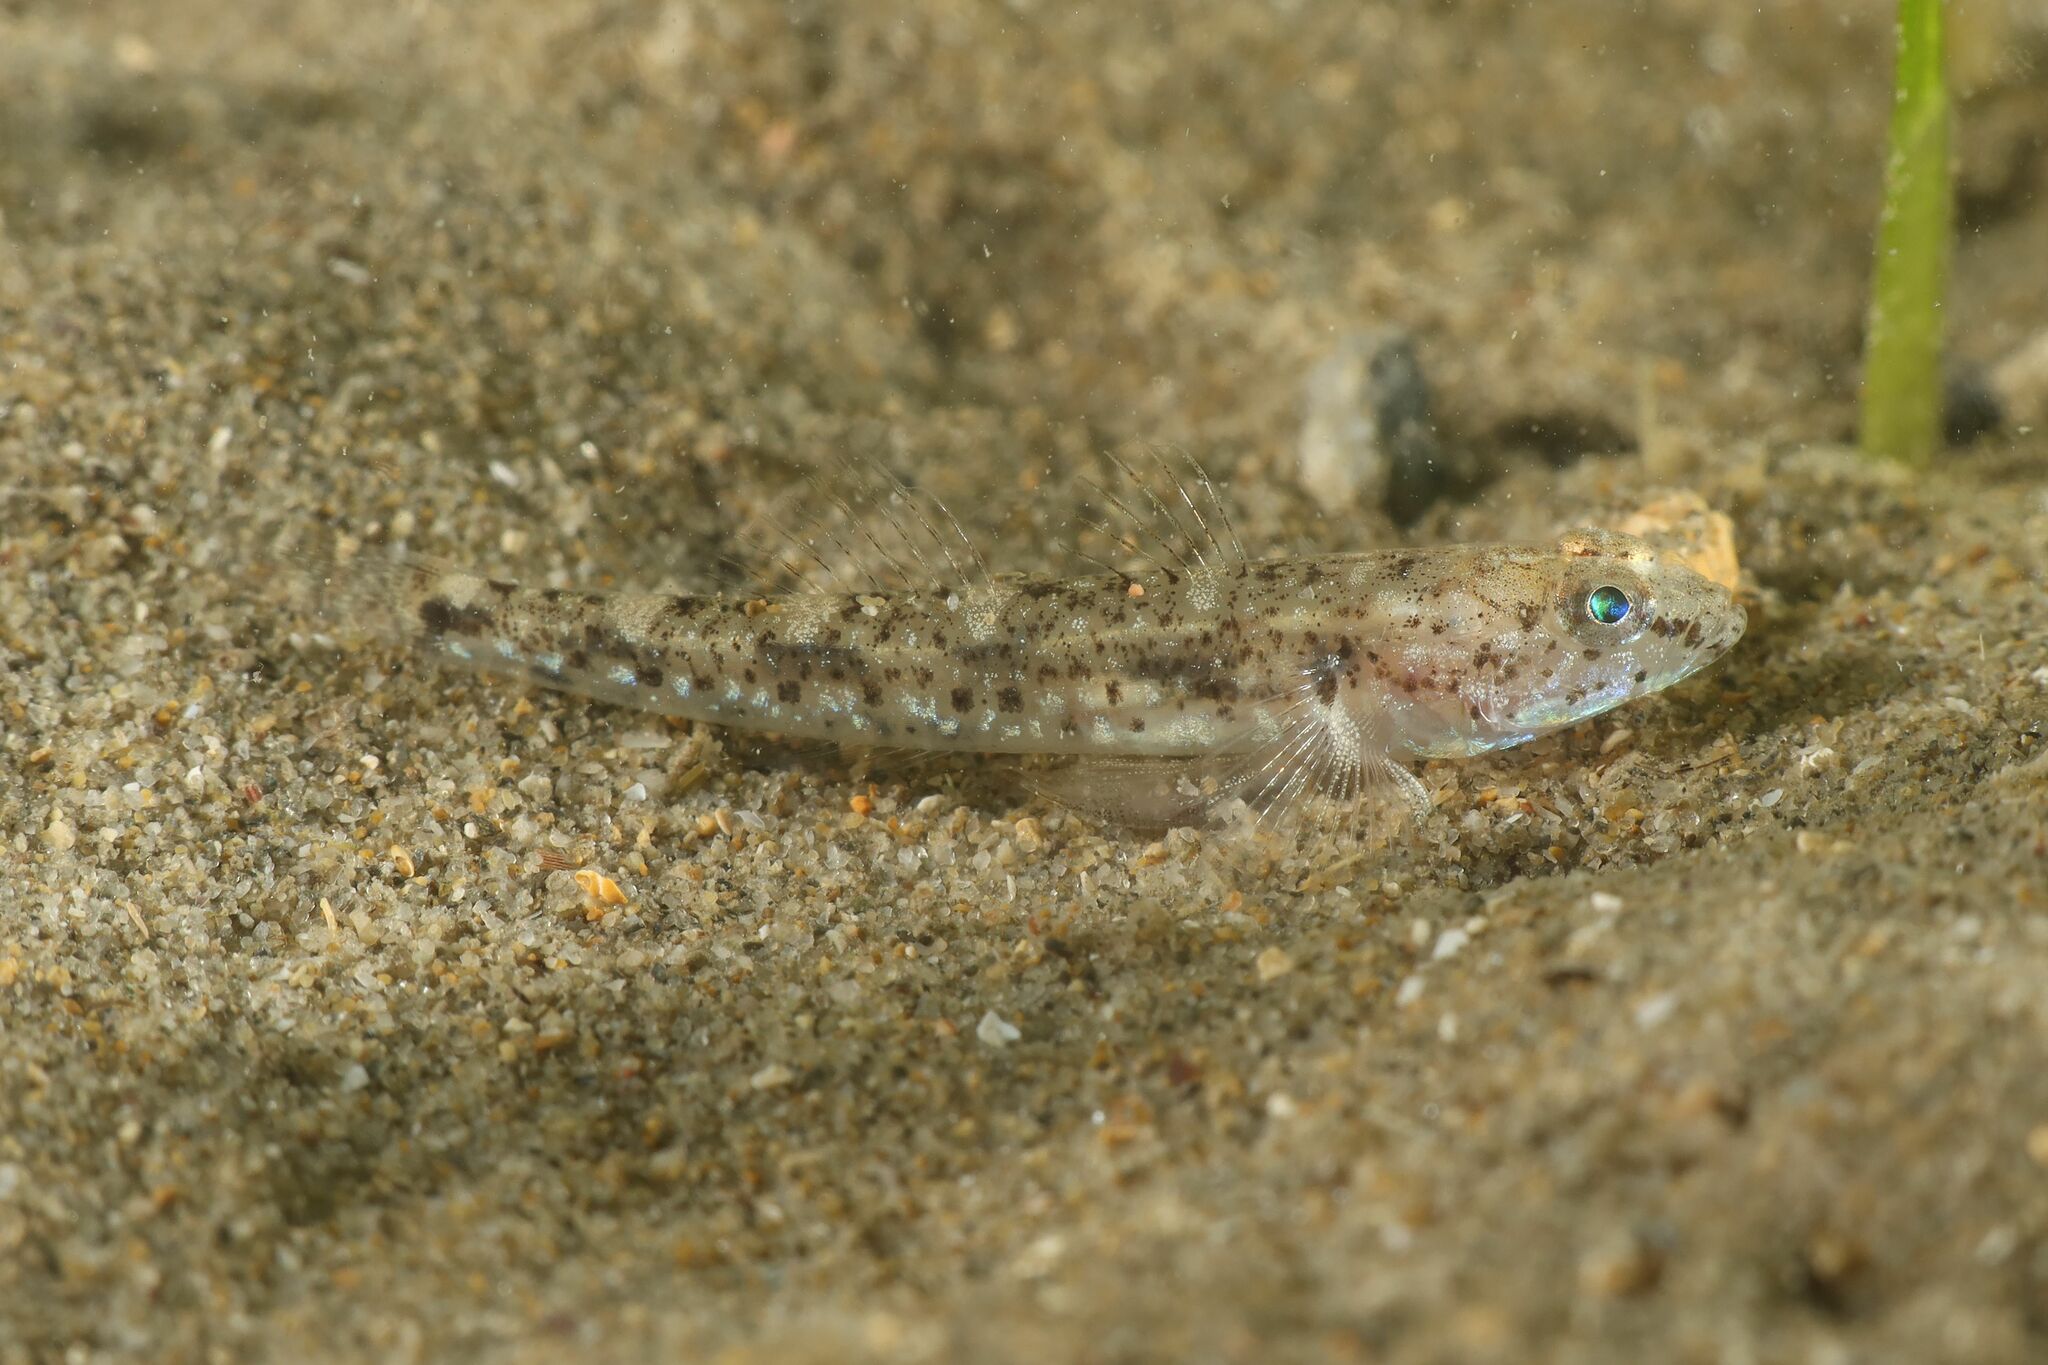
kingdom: Animalia
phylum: Chordata
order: Perciformes
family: Gobiidae
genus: Pomatoschistus
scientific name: Pomatoschistus marmoratus
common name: Marbled goby
